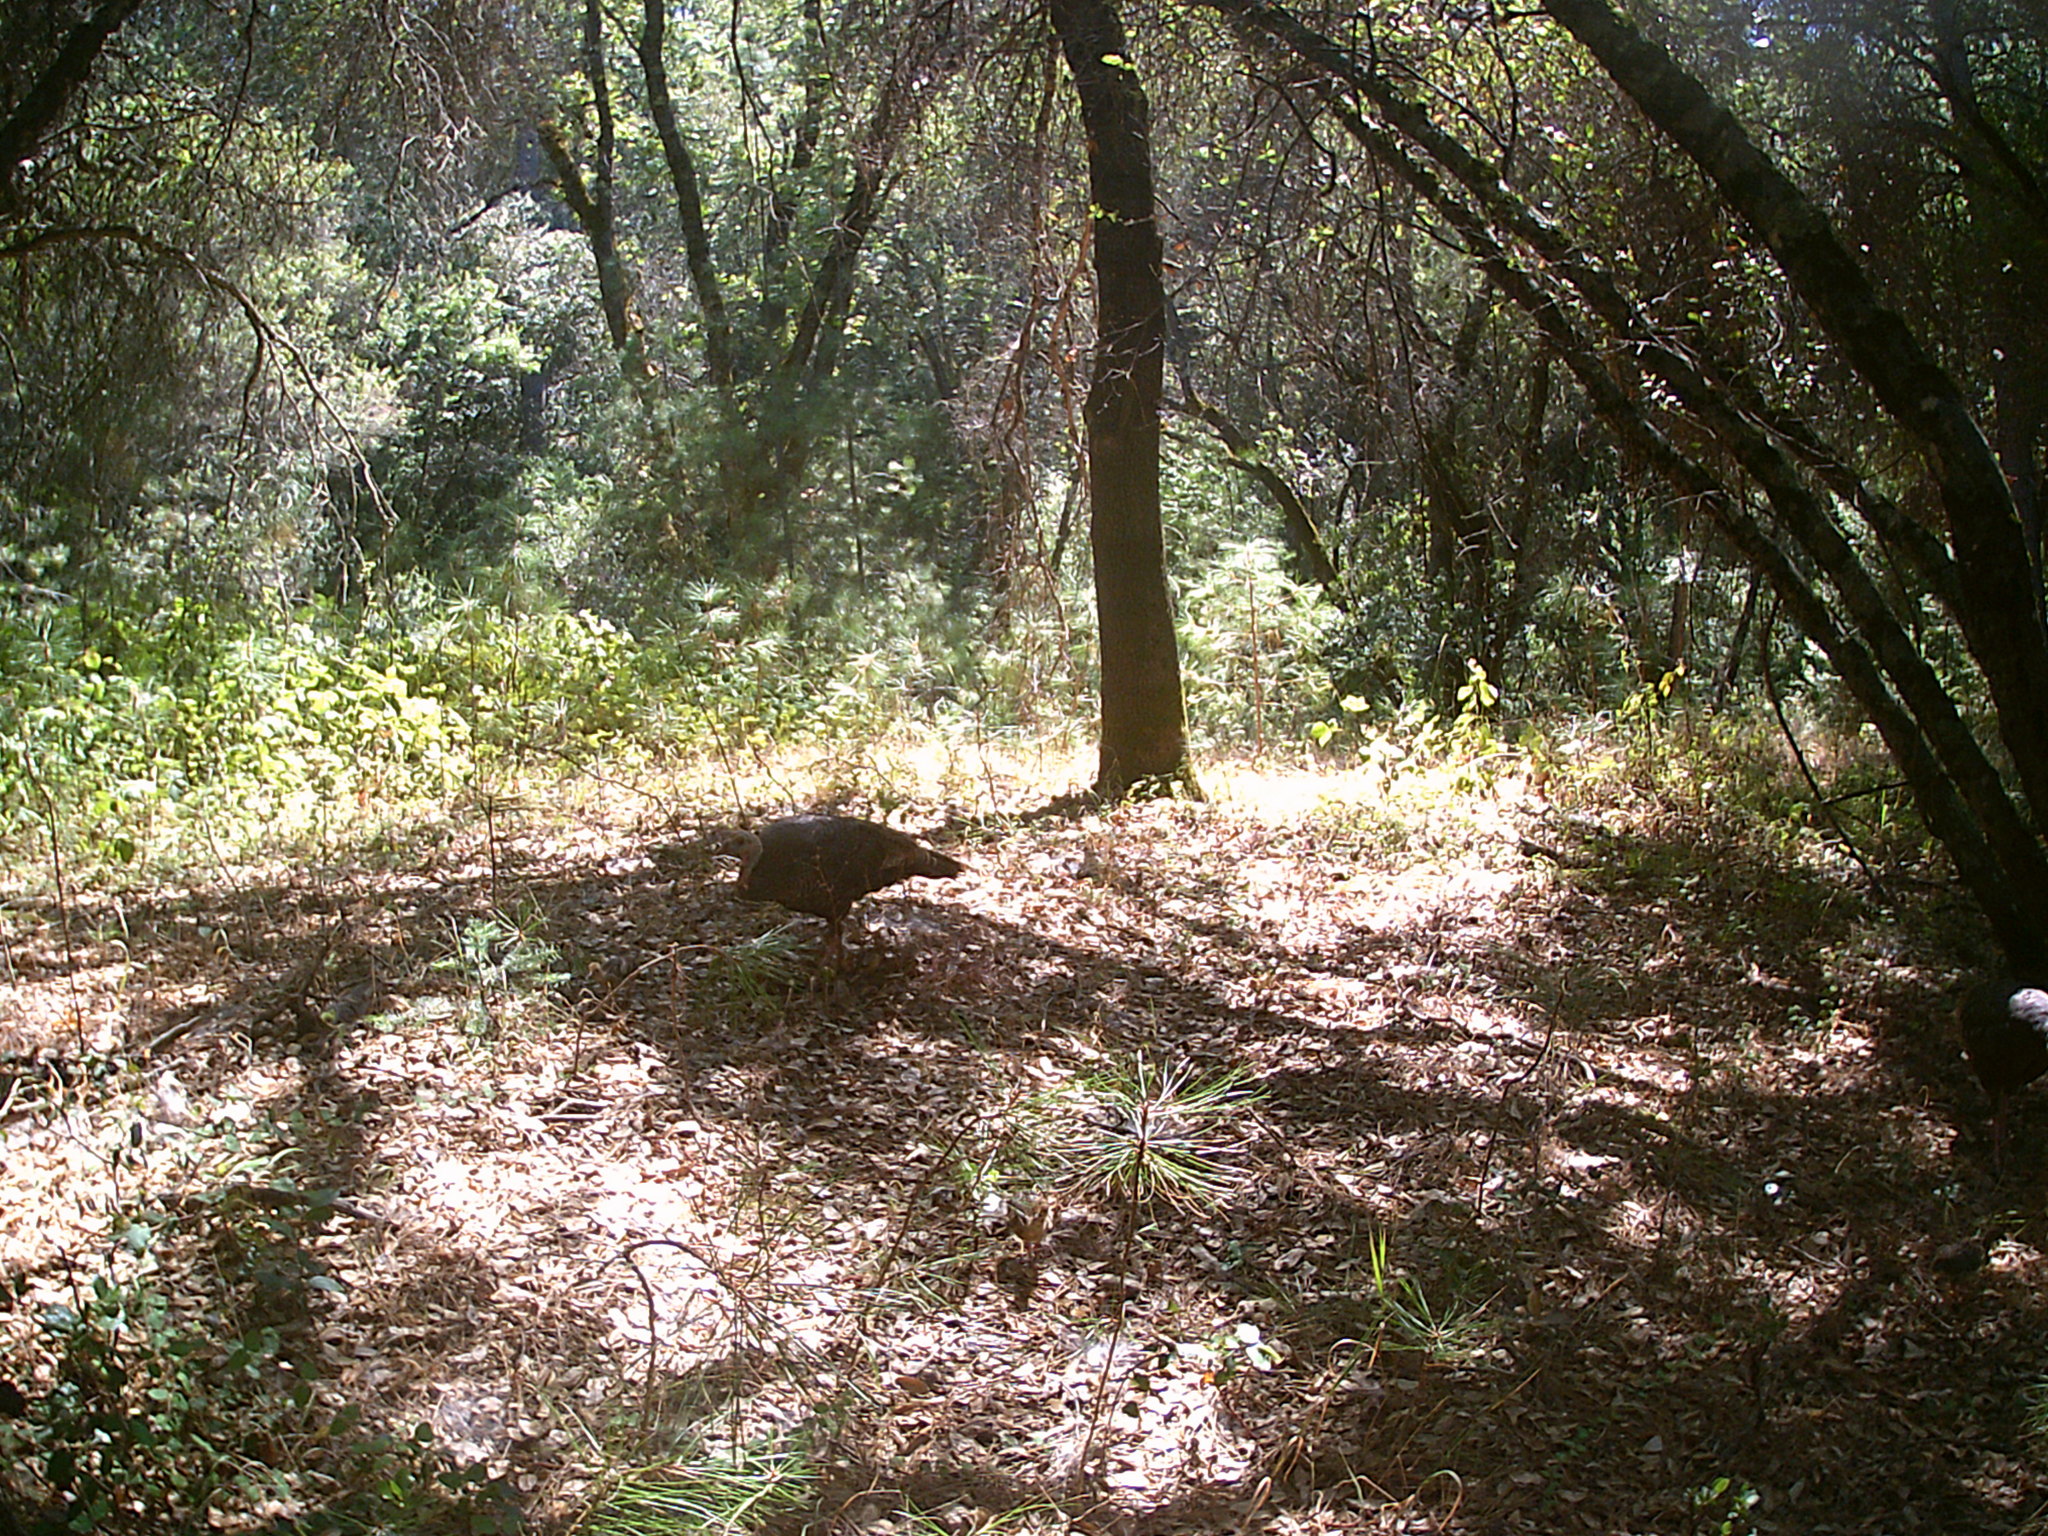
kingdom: Animalia
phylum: Chordata
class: Aves
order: Galliformes
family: Phasianidae
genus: Meleagris
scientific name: Meleagris gallopavo
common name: Wild turkey
